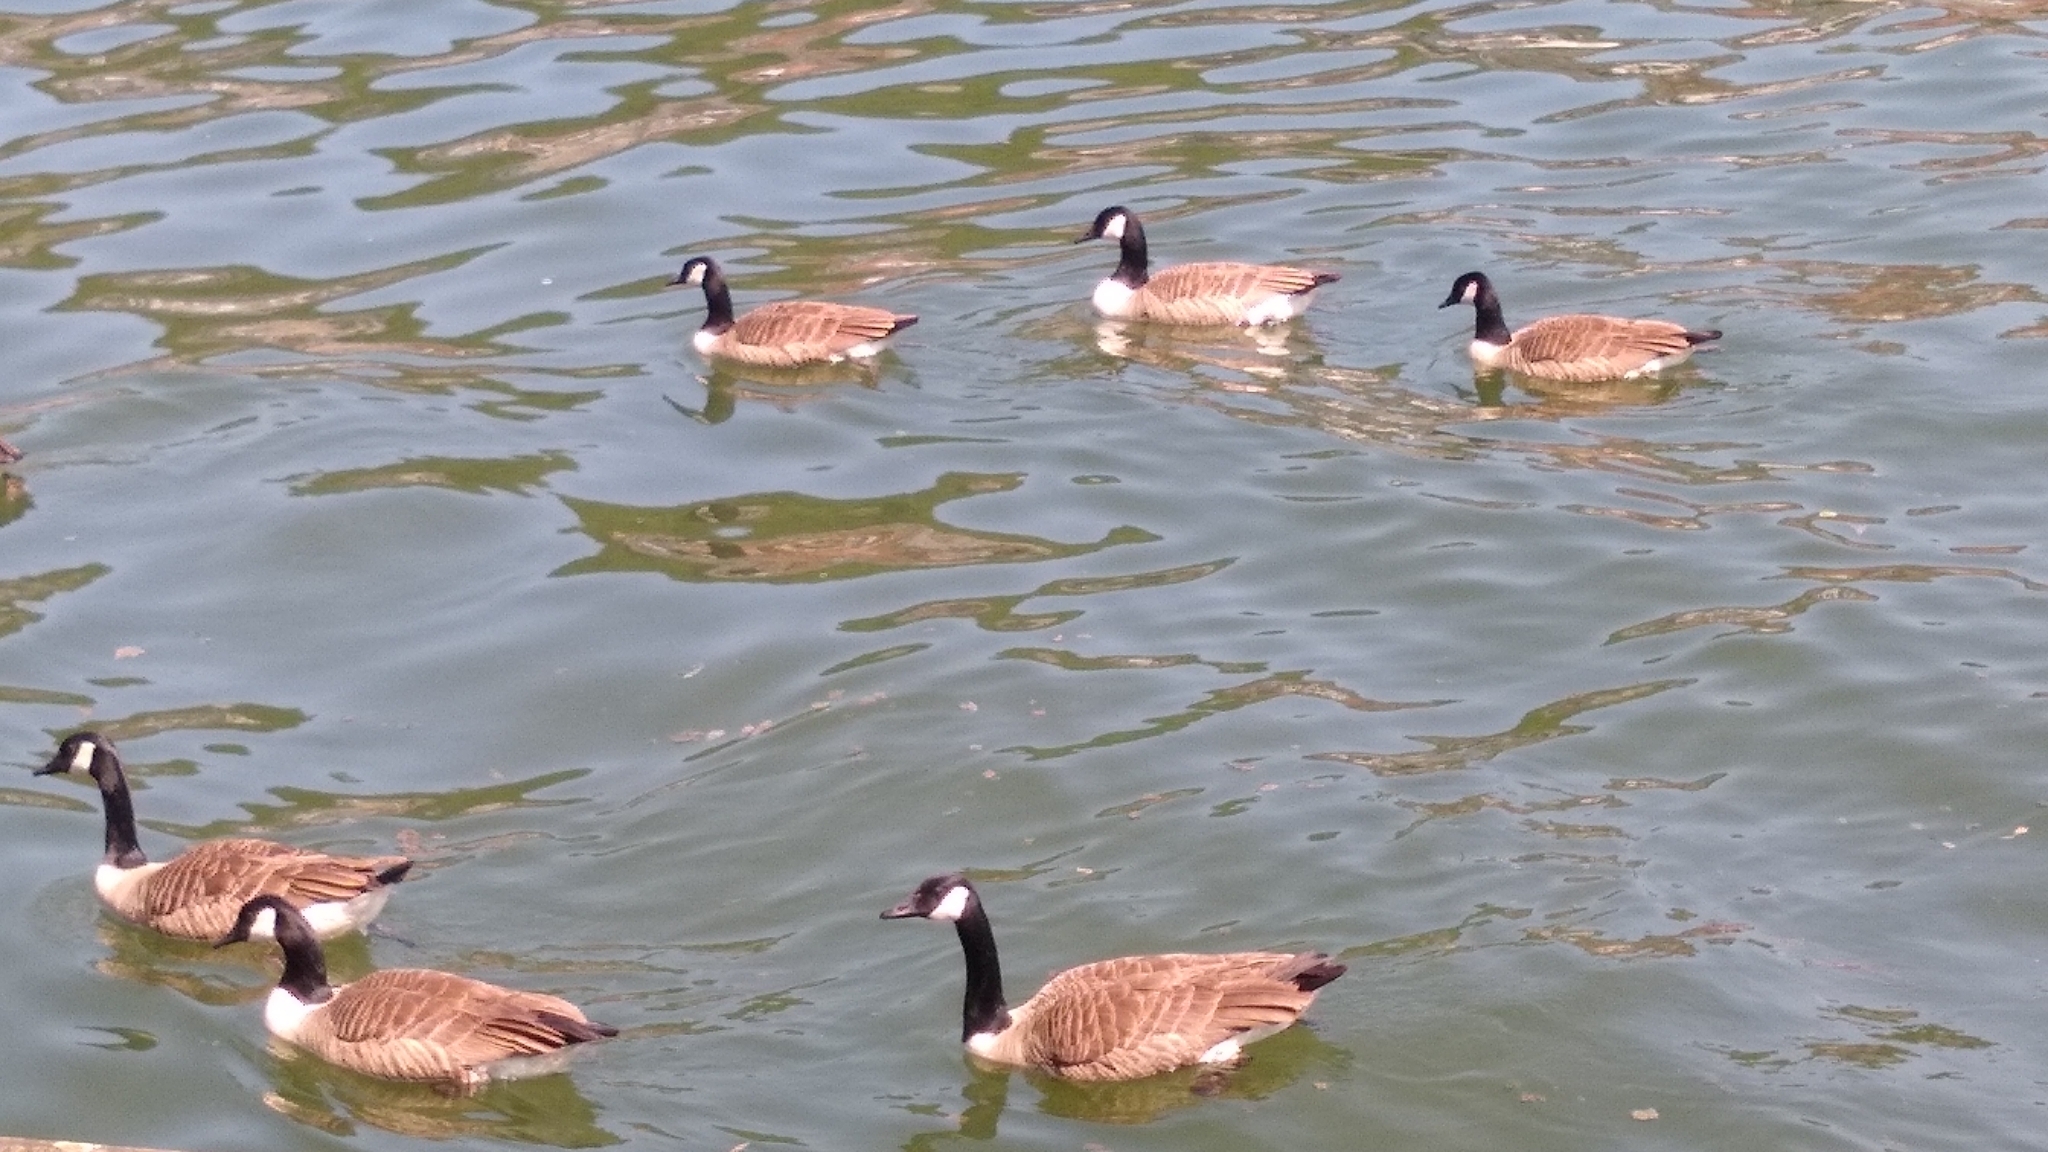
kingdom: Animalia
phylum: Chordata
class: Aves
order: Anseriformes
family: Anatidae
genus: Branta
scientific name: Branta canadensis
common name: Canada goose
